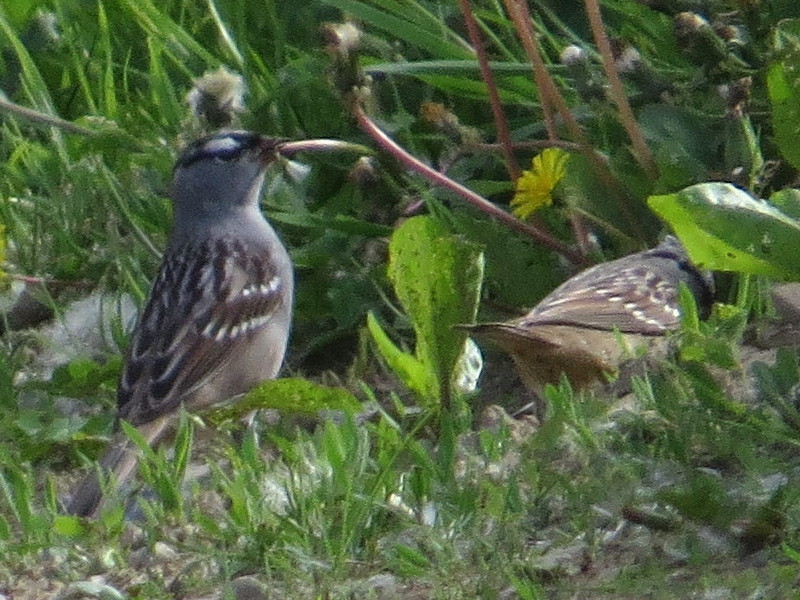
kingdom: Animalia
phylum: Chordata
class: Aves
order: Passeriformes
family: Passerellidae
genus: Zonotrichia
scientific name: Zonotrichia leucophrys
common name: White-crowned sparrow
